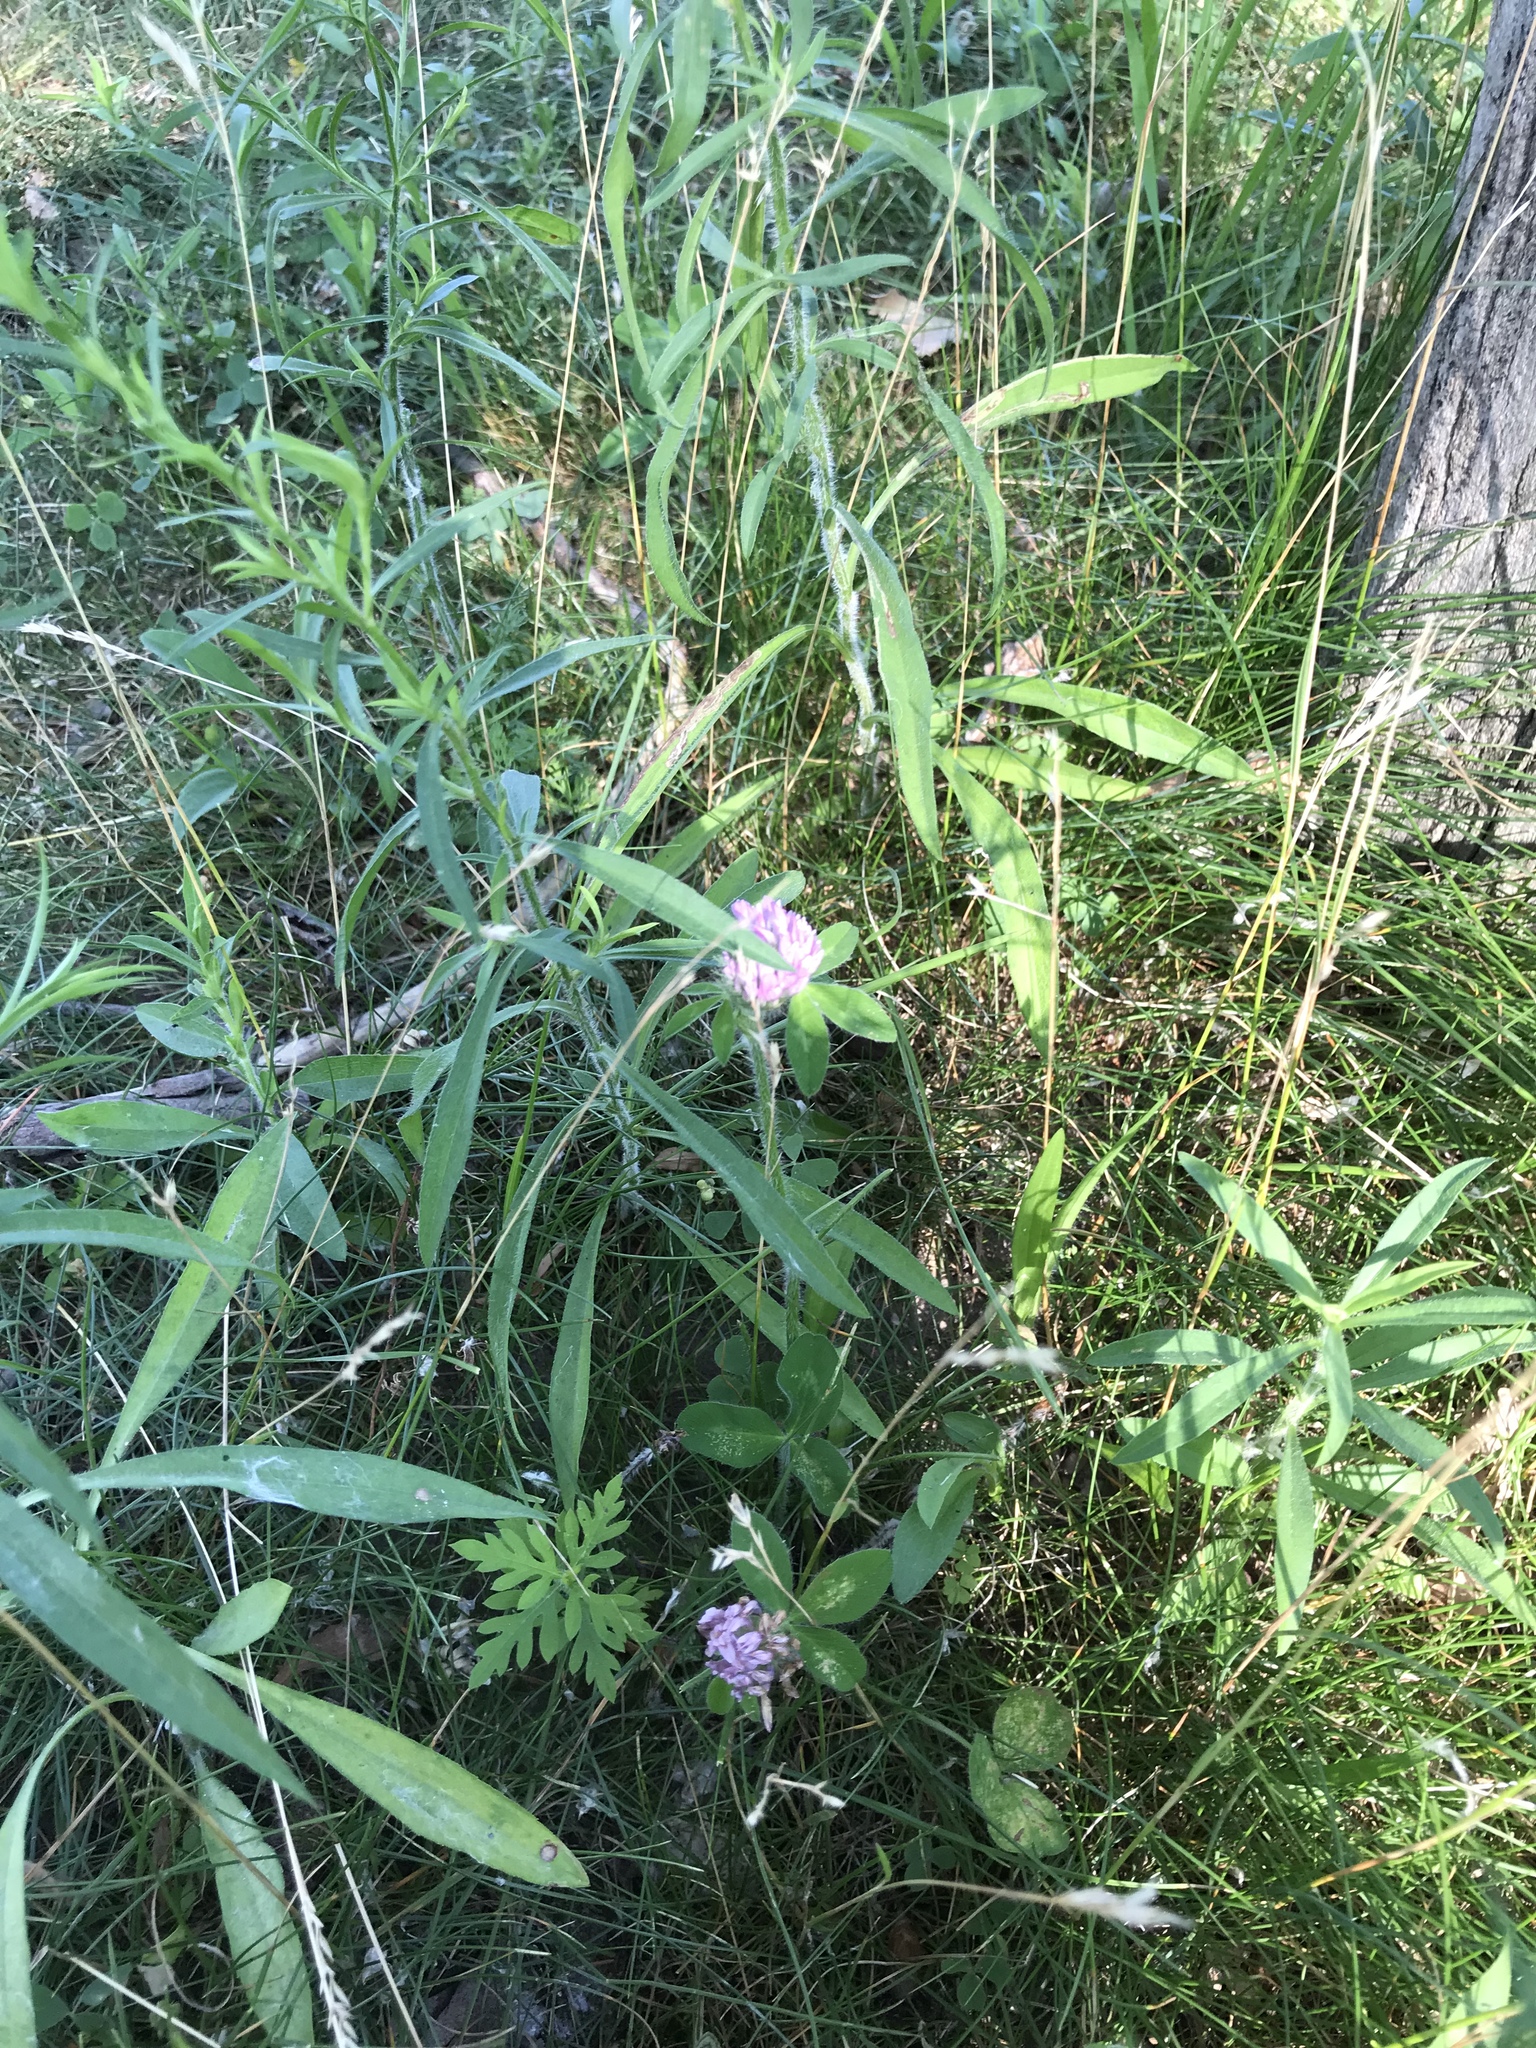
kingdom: Plantae
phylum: Tracheophyta
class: Magnoliopsida
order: Fabales
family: Fabaceae
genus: Trifolium
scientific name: Trifolium pratense
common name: Red clover
